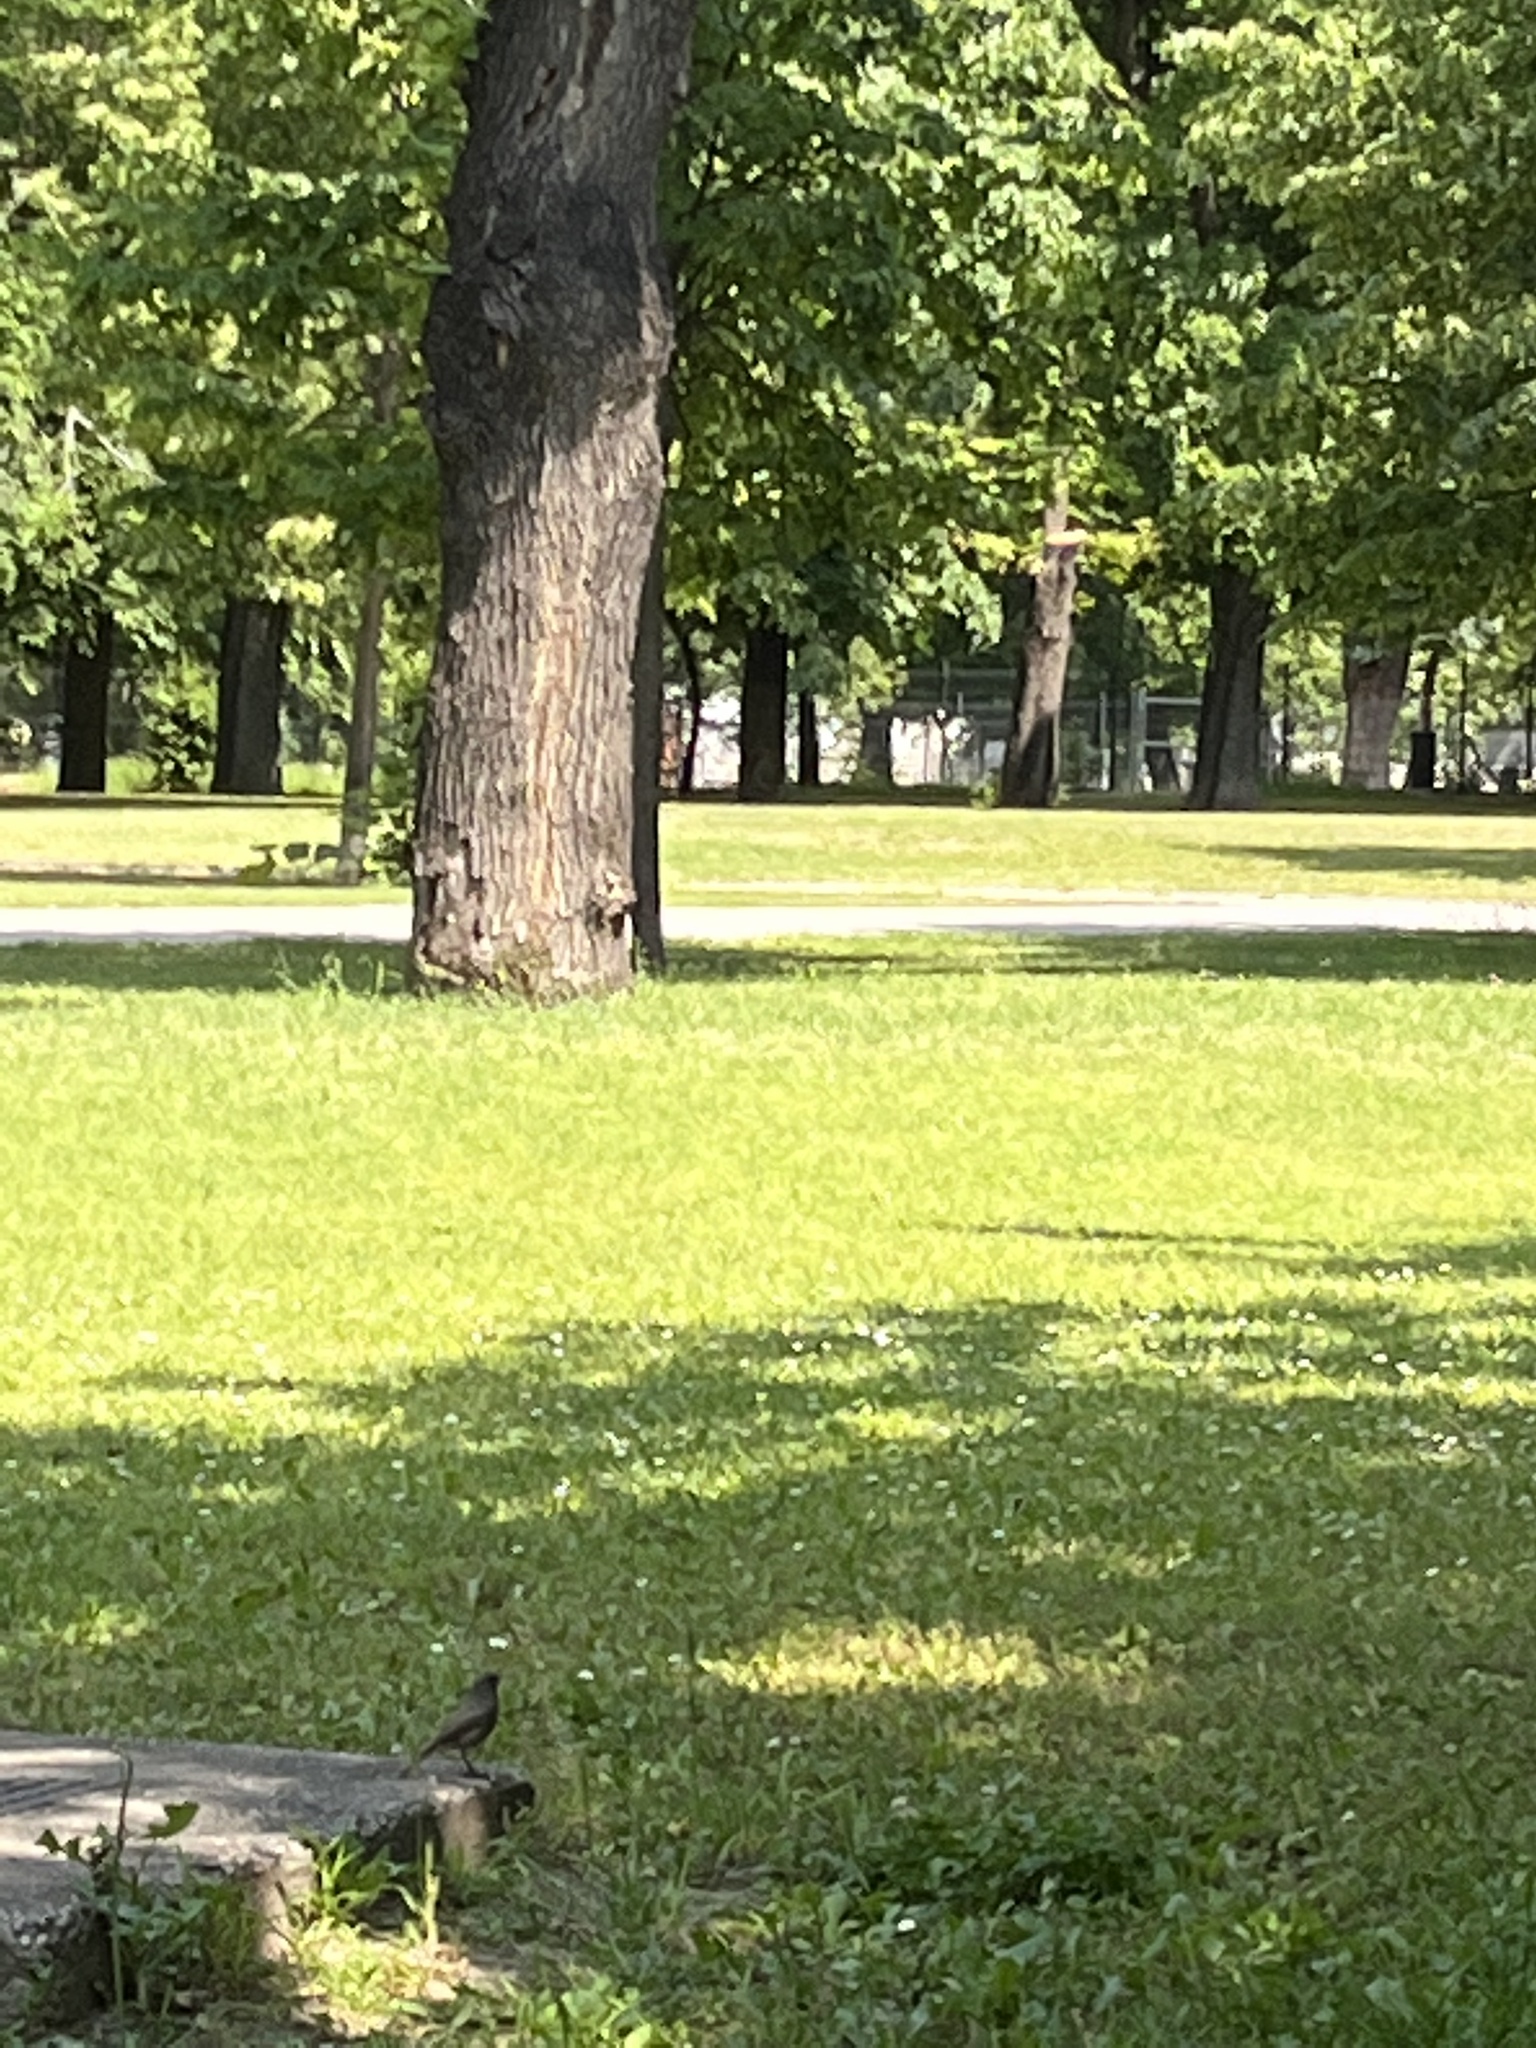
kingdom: Animalia
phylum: Chordata
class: Aves
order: Passeriformes
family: Muscicapidae
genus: Phoenicurus
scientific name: Phoenicurus ochruros
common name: Black redstart
